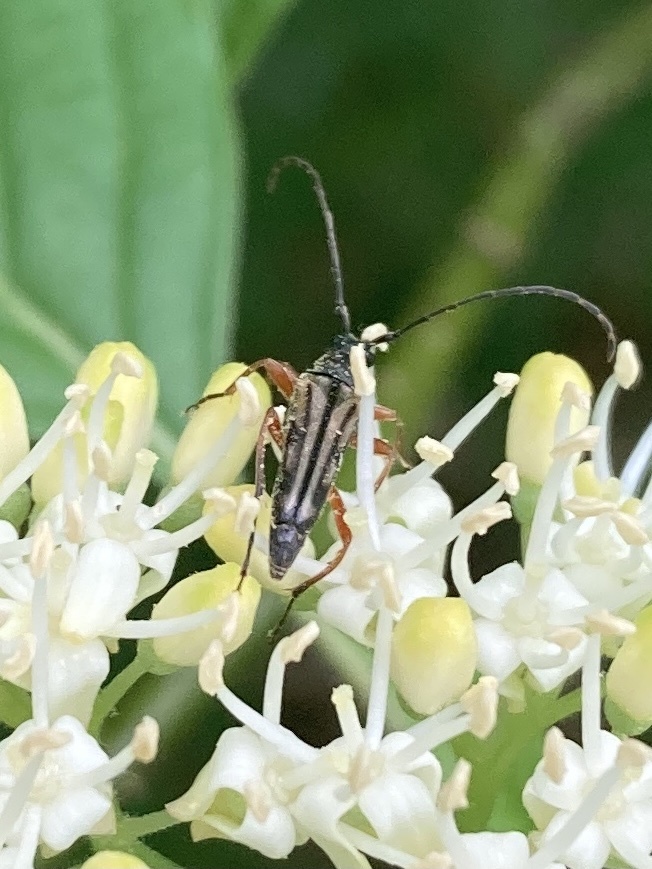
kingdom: Animalia
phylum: Arthropoda
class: Insecta
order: Coleoptera
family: Cerambycidae
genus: Analeptura
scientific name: Analeptura lineola
